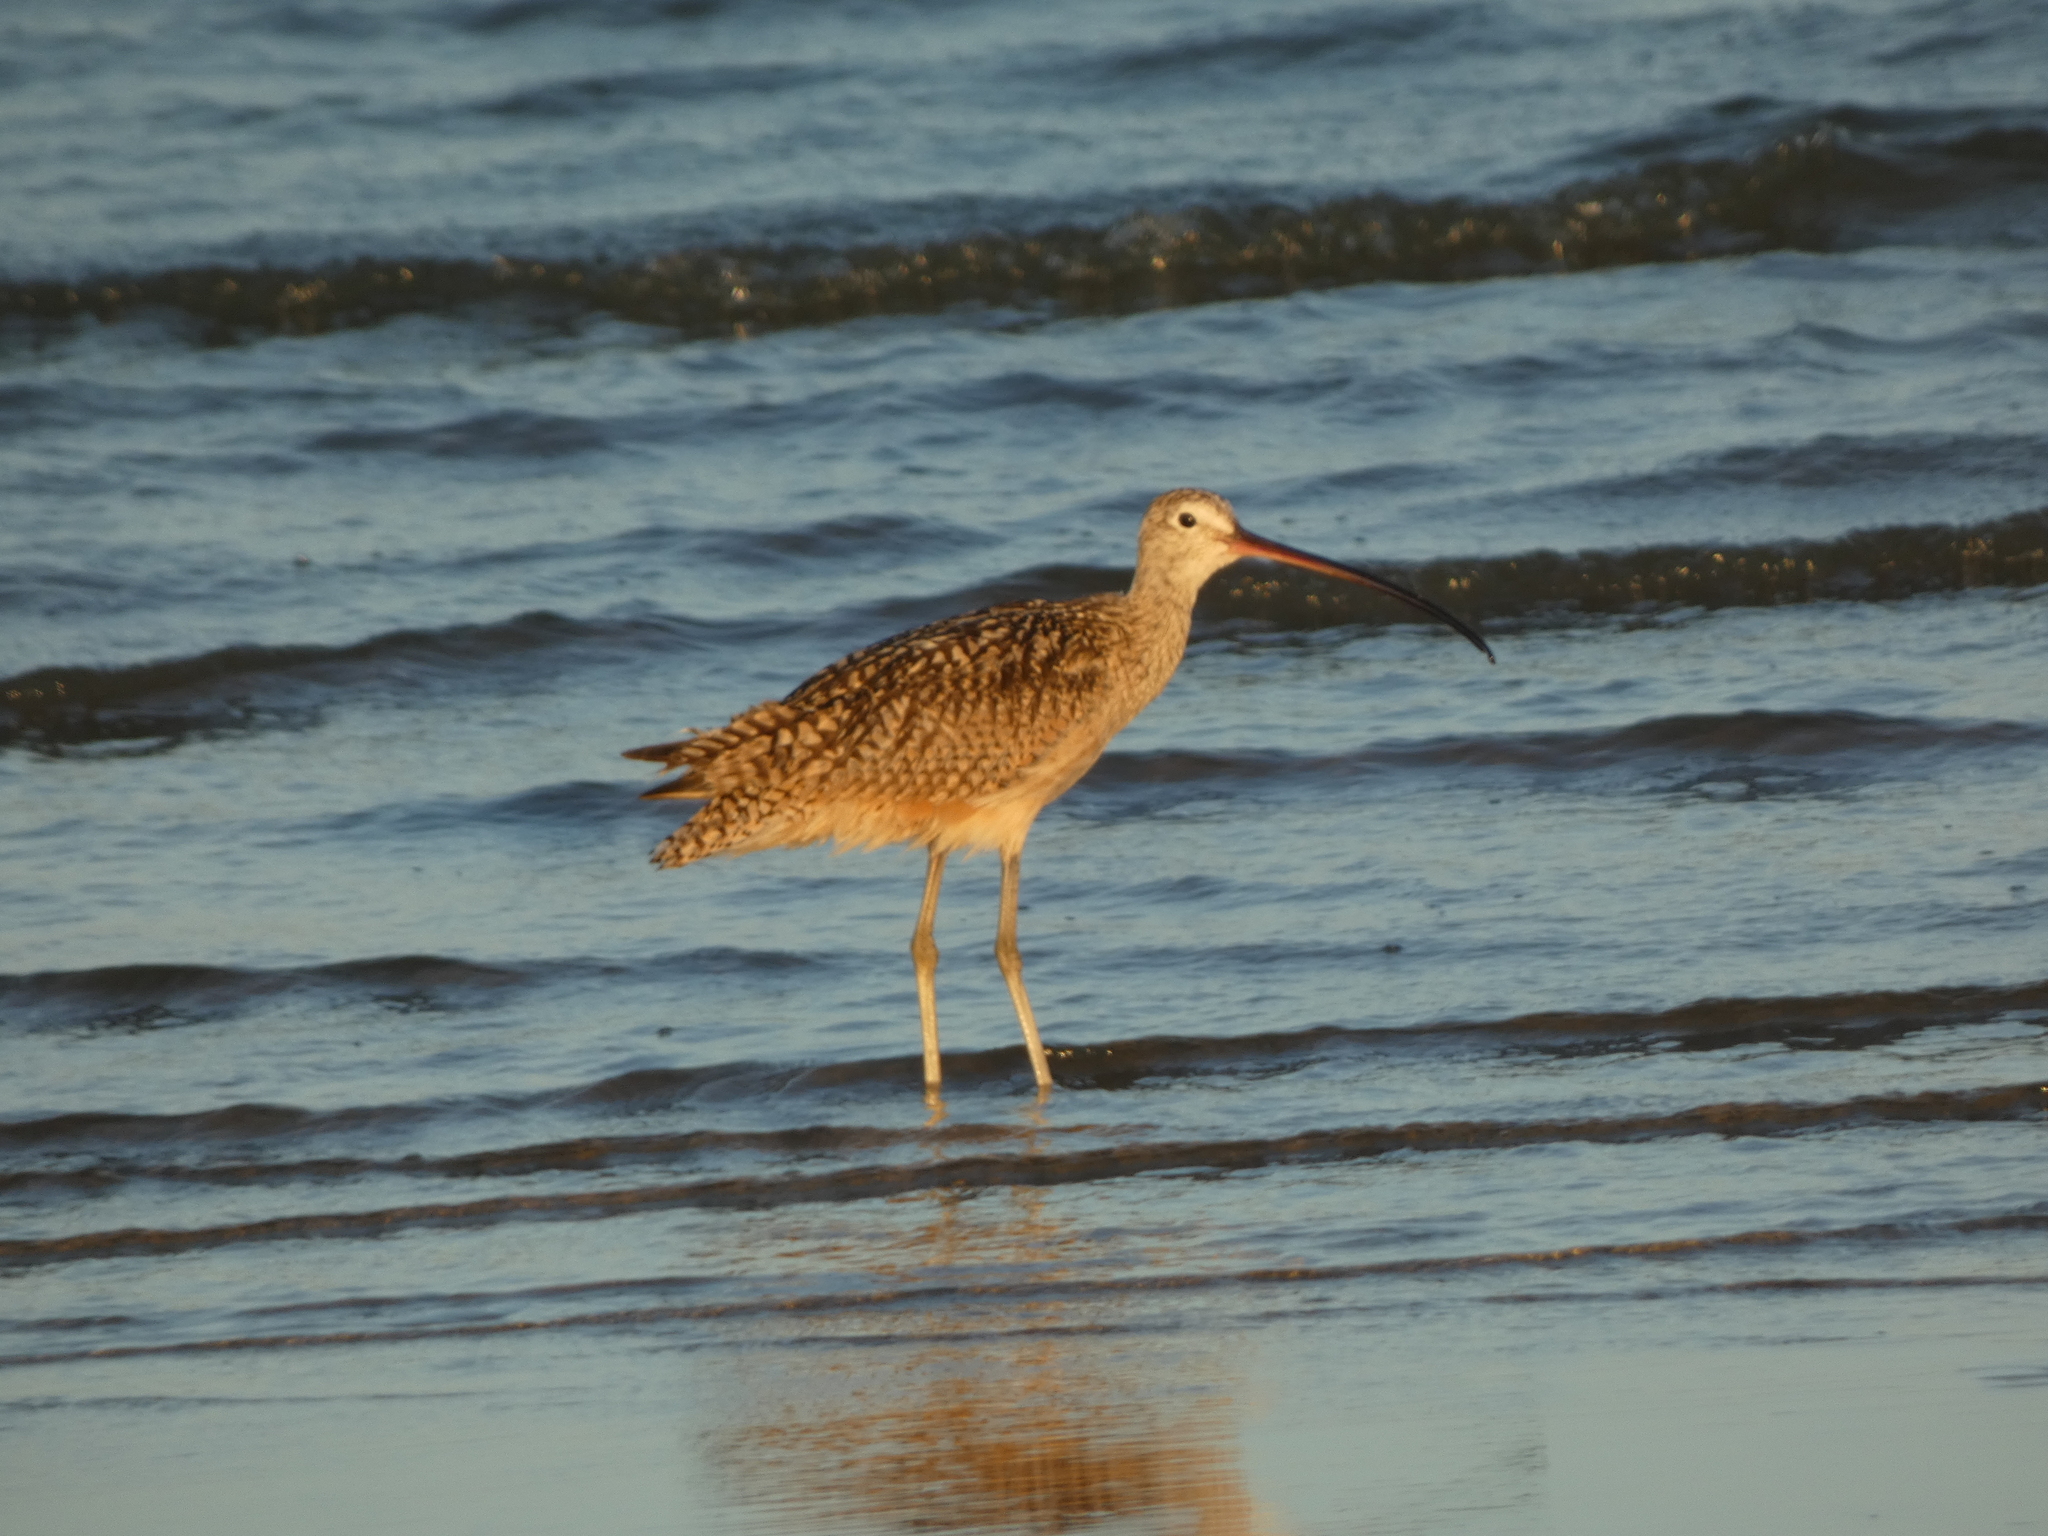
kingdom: Animalia
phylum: Chordata
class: Aves
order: Charadriiformes
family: Scolopacidae
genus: Numenius
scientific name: Numenius americanus
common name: Long-billed curlew
